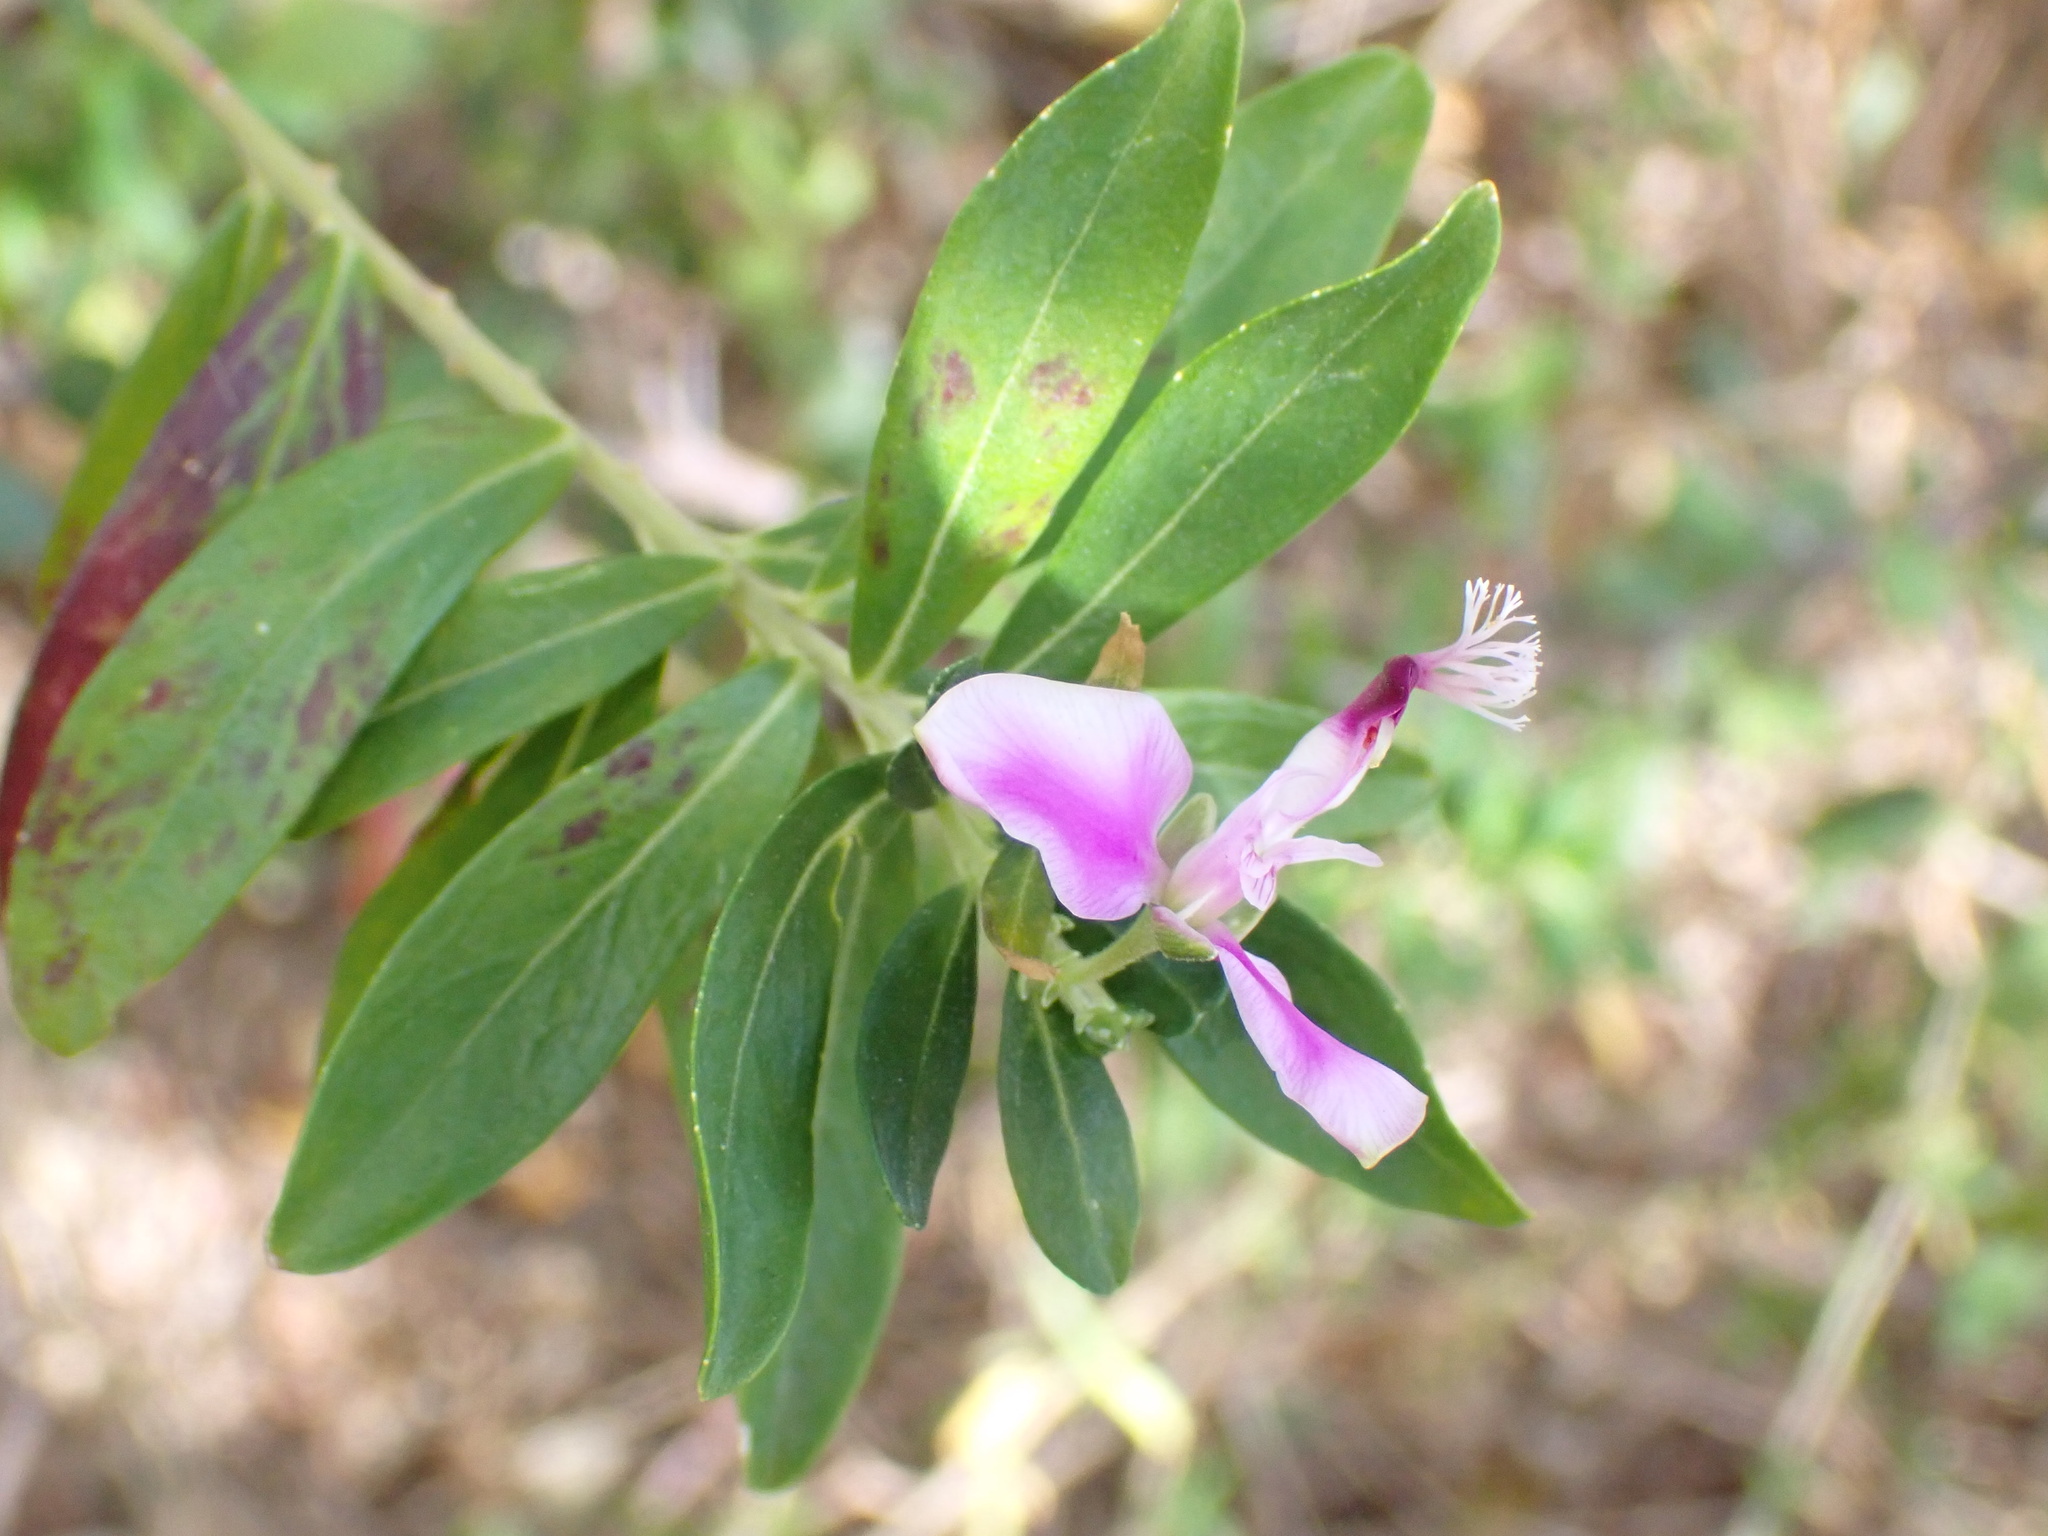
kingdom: Plantae
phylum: Tracheophyta
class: Magnoliopsida
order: Fabales
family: Polygalaceae
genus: Polygala
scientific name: Polygala myrtifolia
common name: Myrtle-leaf milkwort
